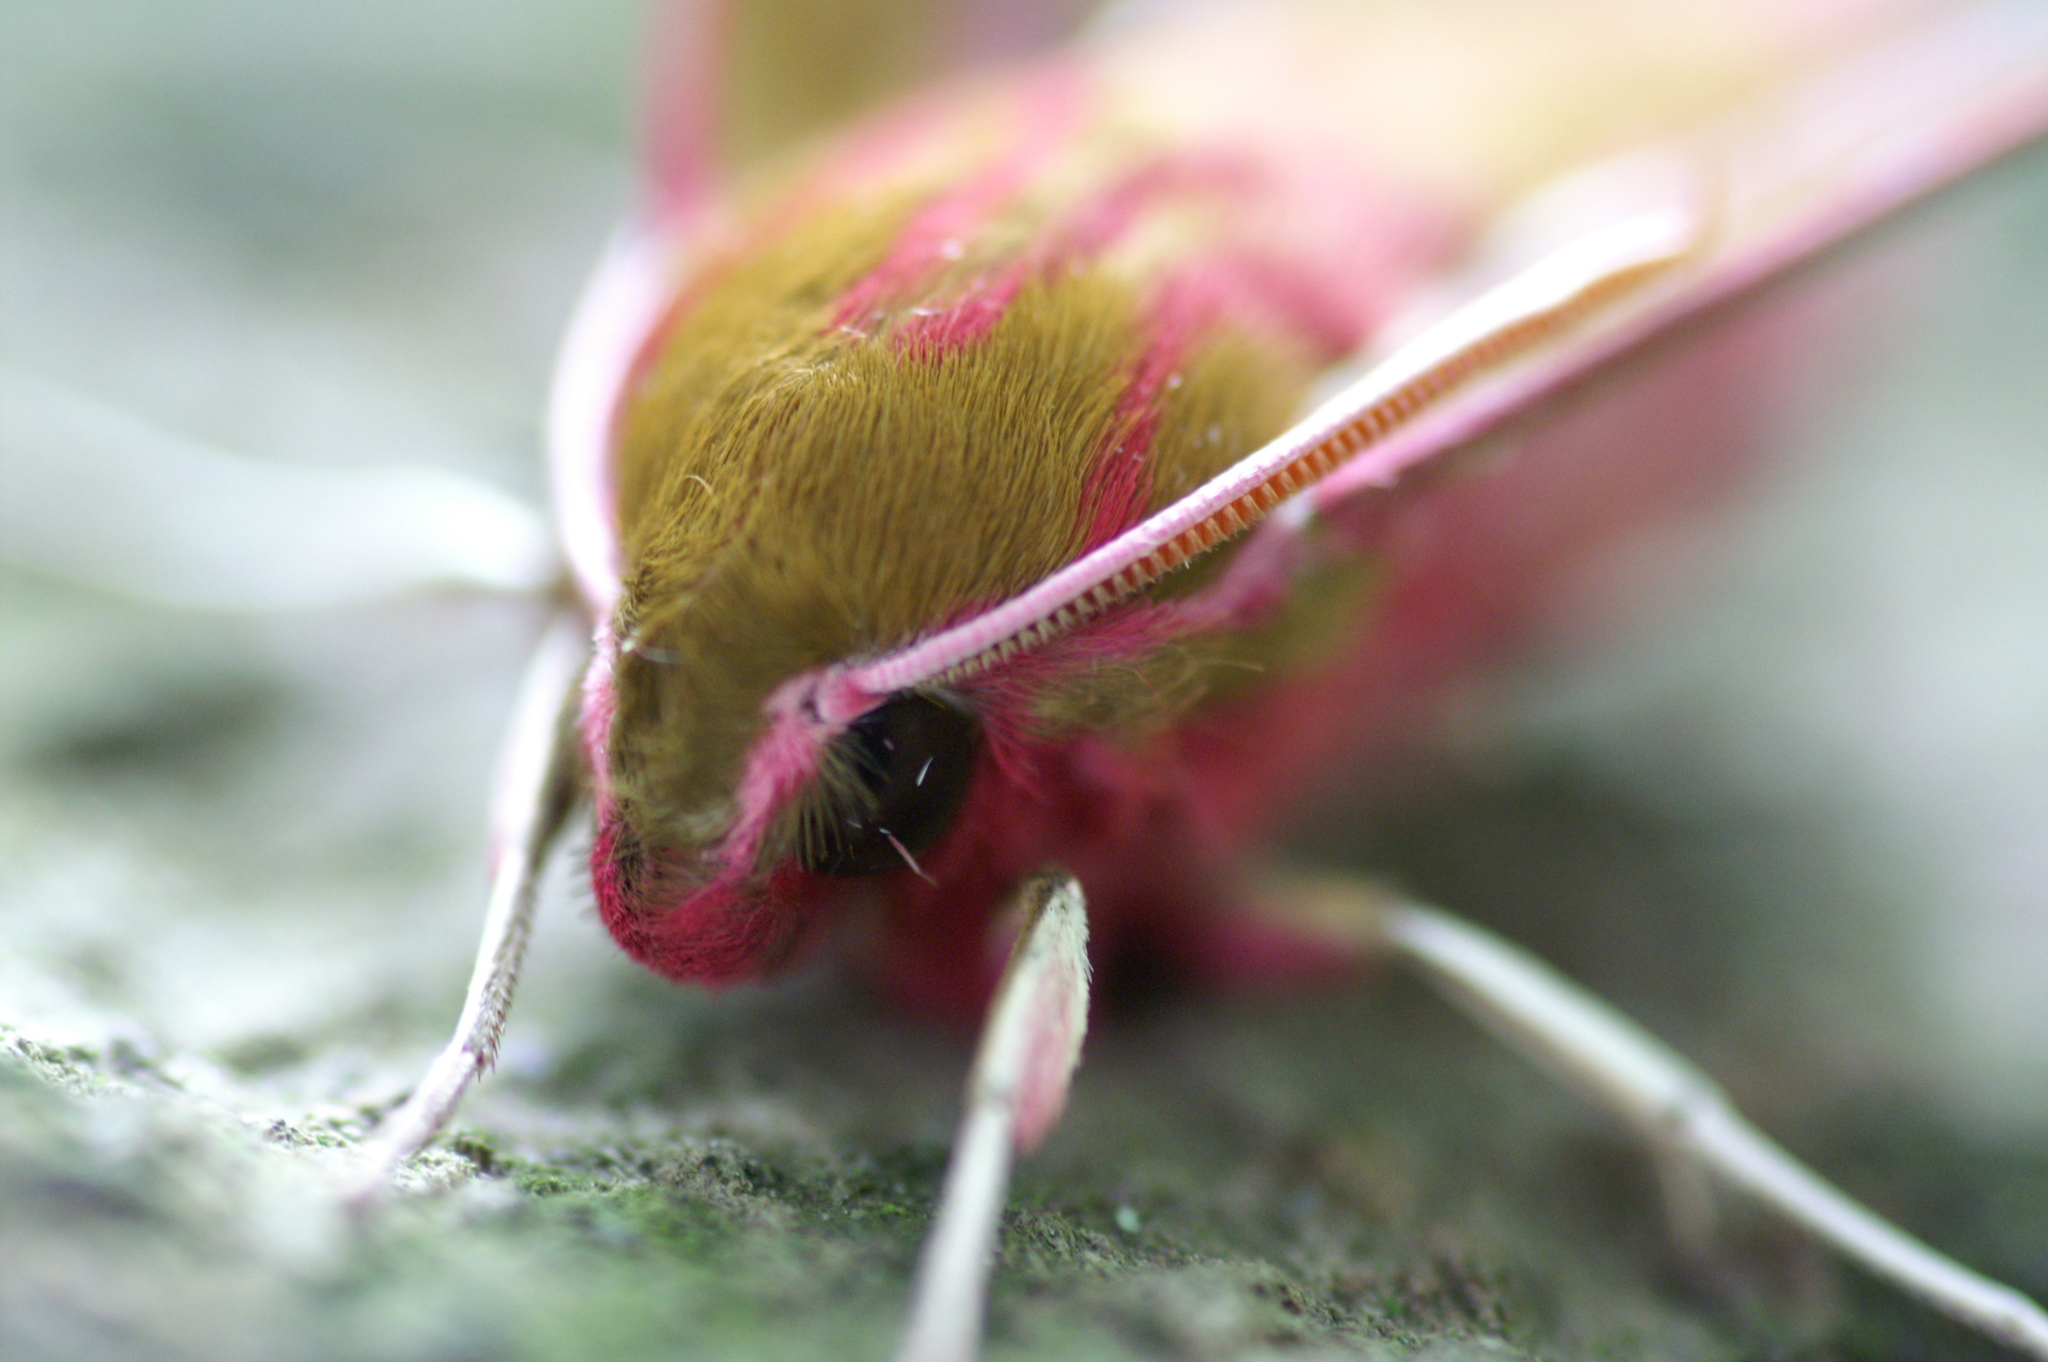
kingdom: Animalia
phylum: Arthropoda
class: Insecta
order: Lepidoptera
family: Sphingidae
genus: Deilephila
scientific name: Deilephila elpenor
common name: Elephant hawk-moth
